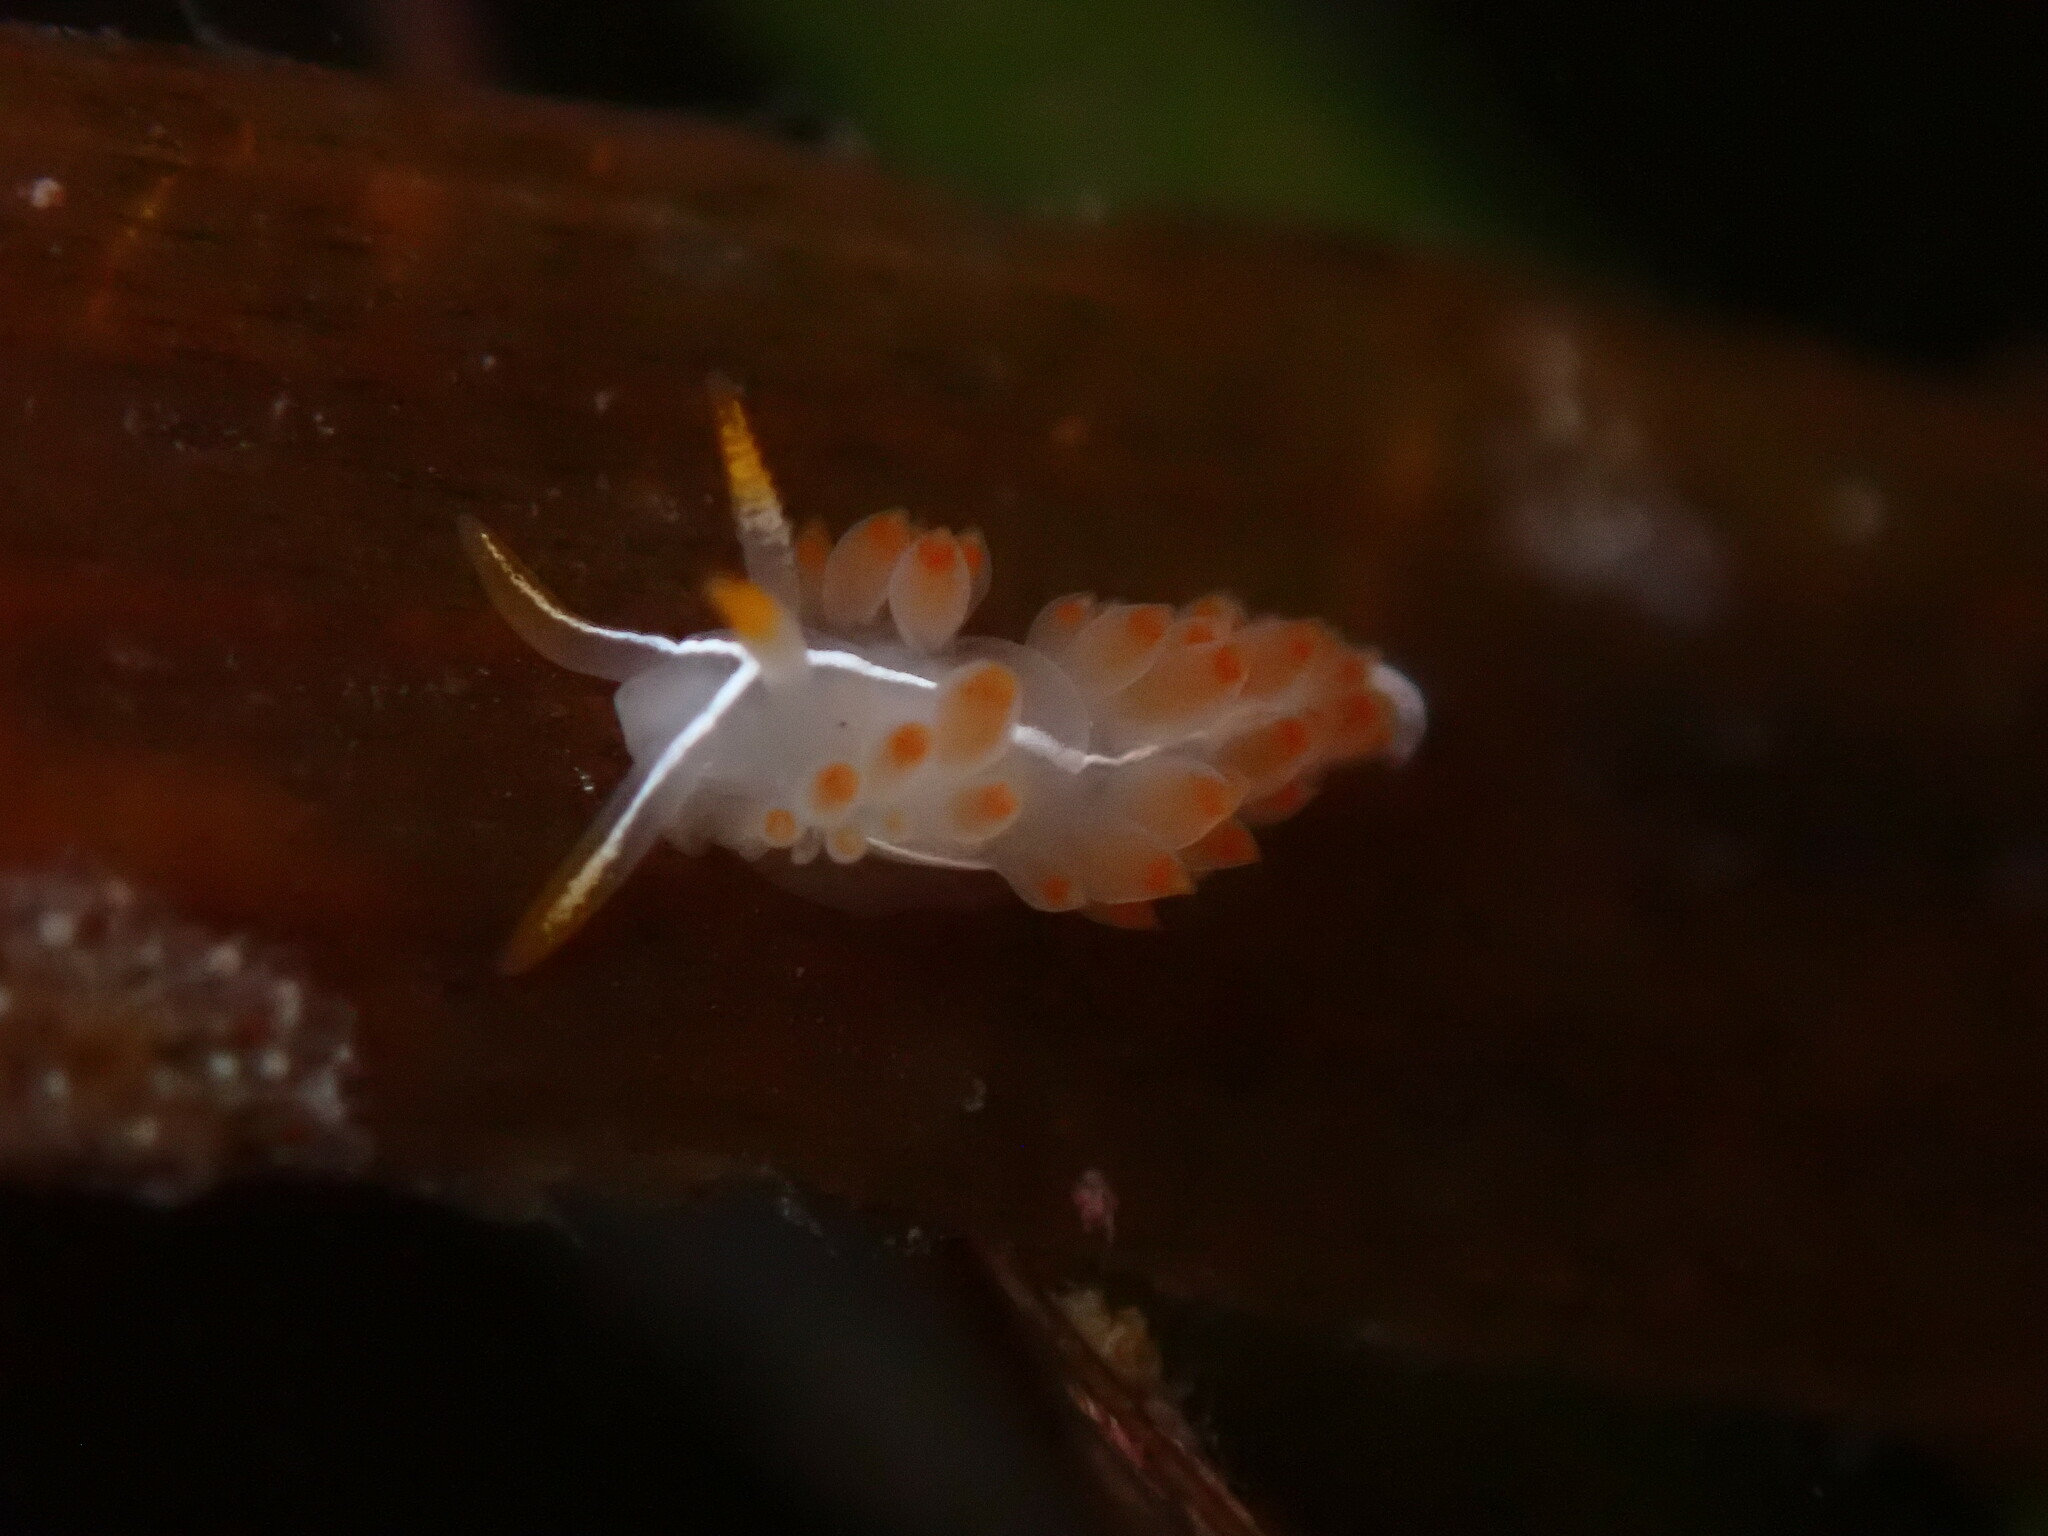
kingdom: Animalia
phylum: Mollusca
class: Gastropoda
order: Nudibranchia
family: Coryphellidae
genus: Coryphella
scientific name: Coryphella trilineata
